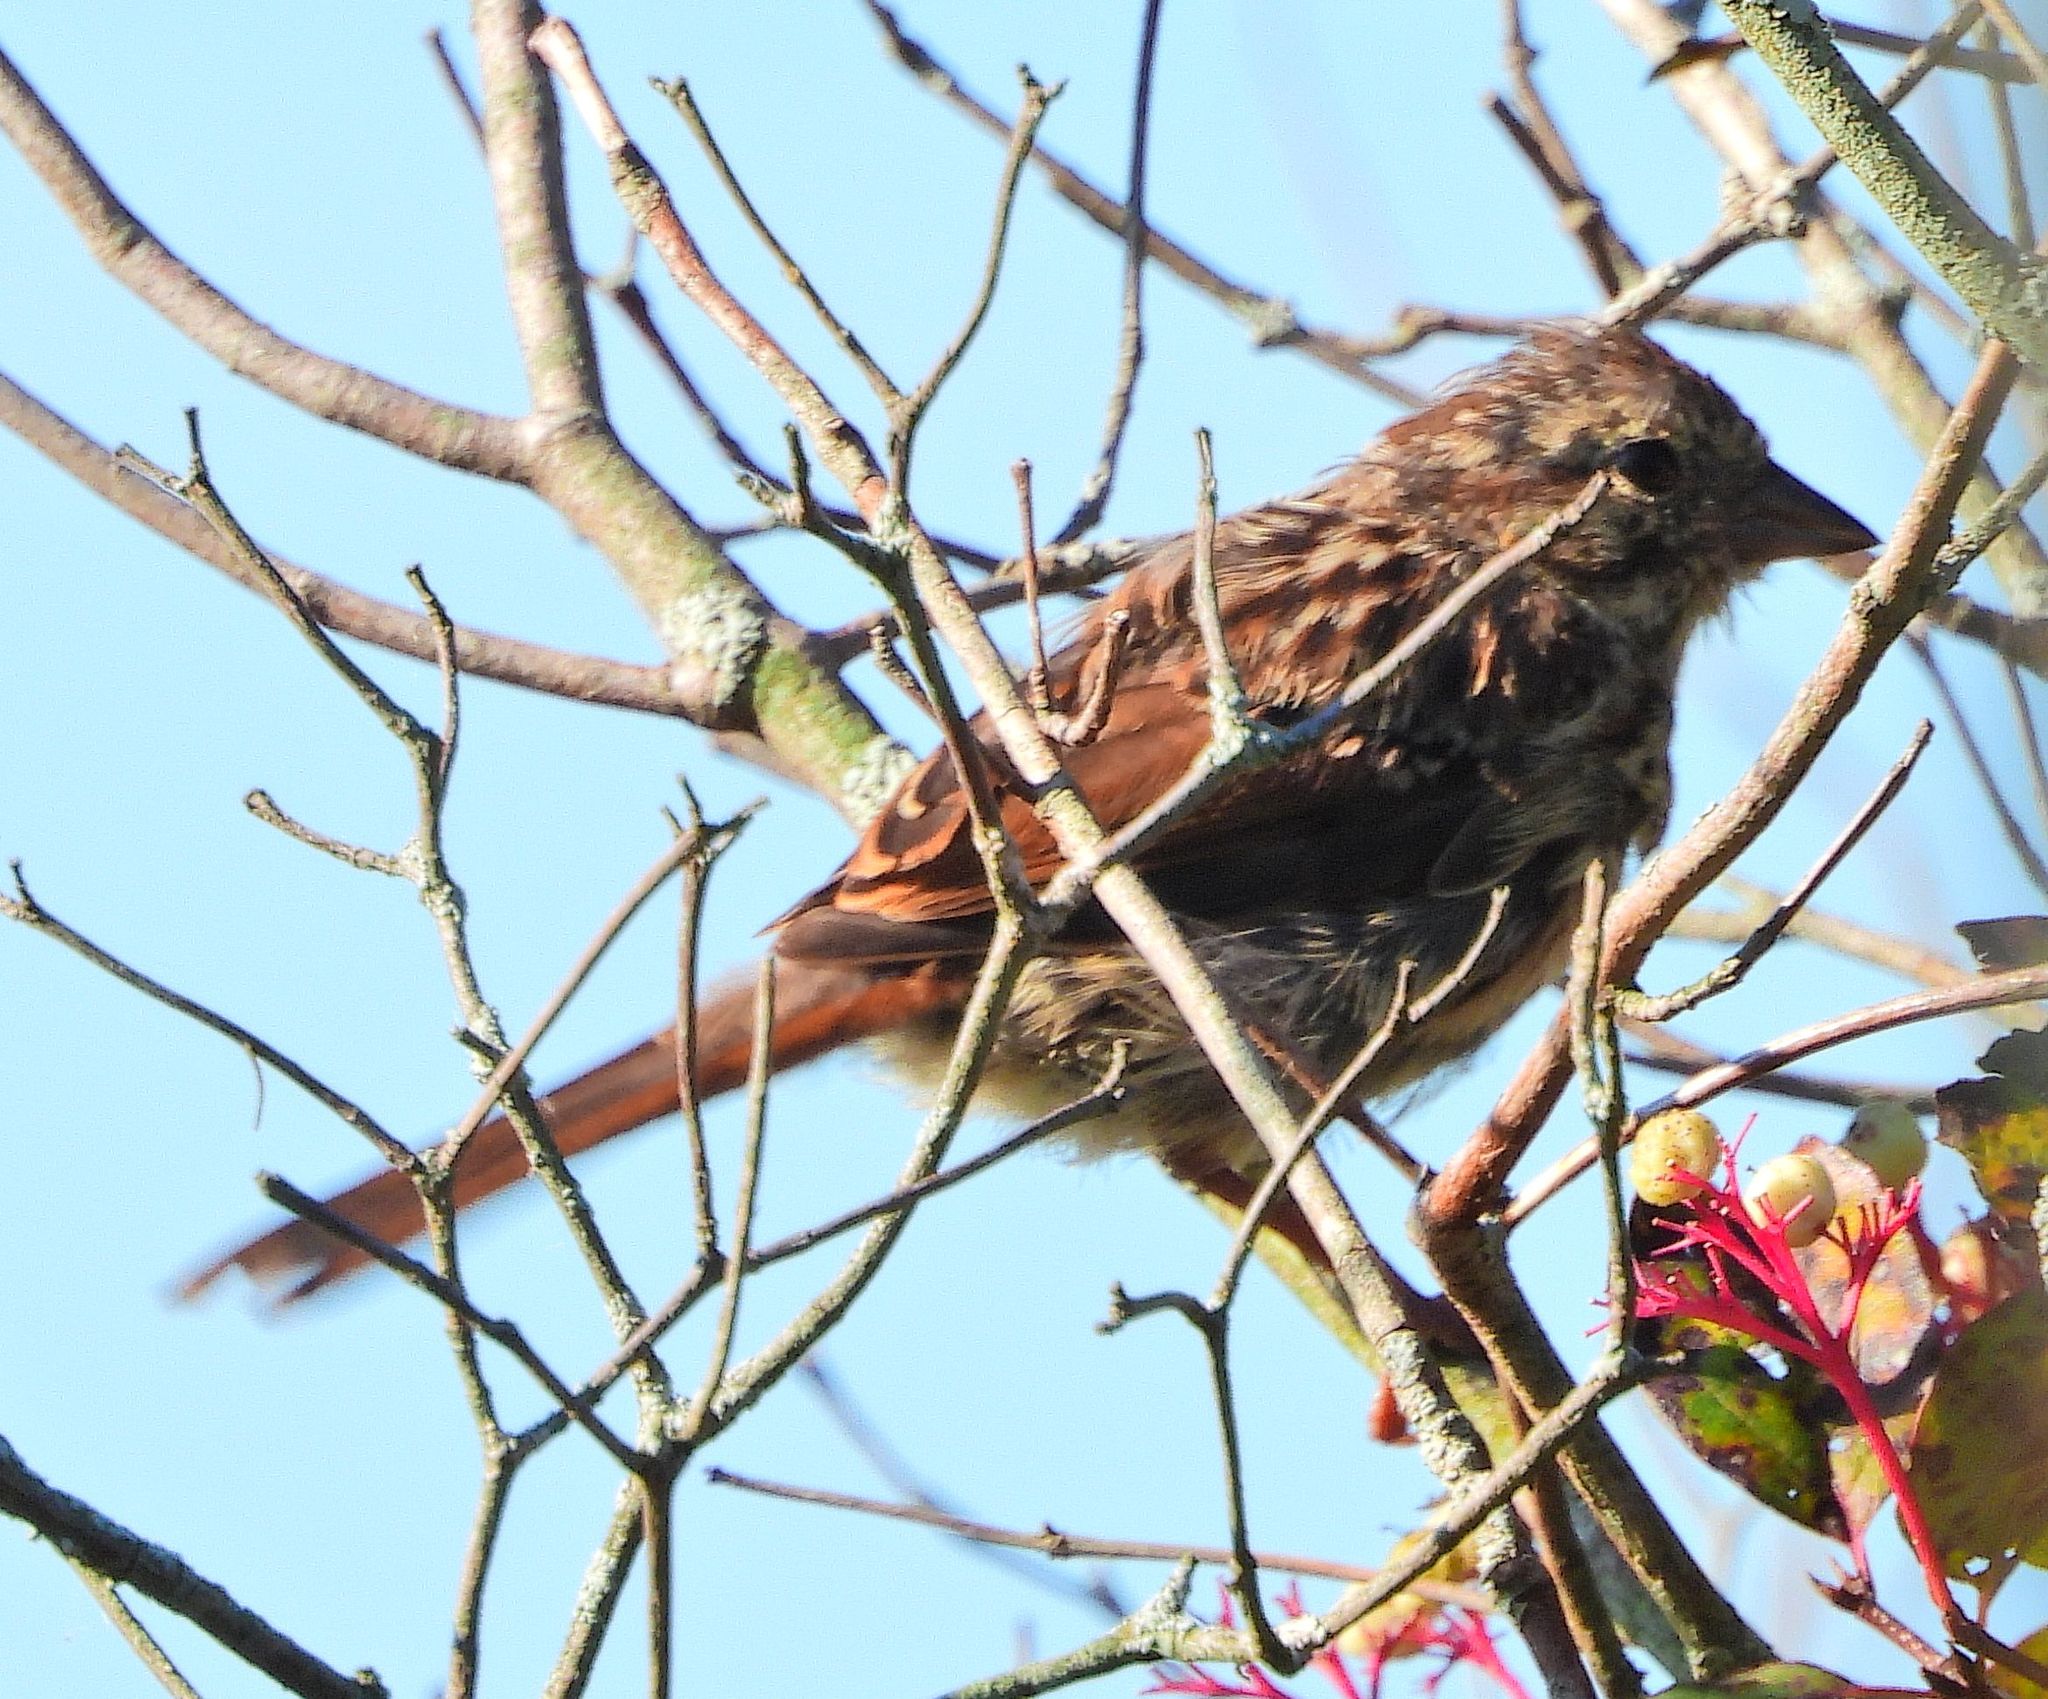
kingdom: Animalia
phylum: Chordata
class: Aves
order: Passeriformes
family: Passerellidae
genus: Melospiza
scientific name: Melospiza melodia
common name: Song sparrow
